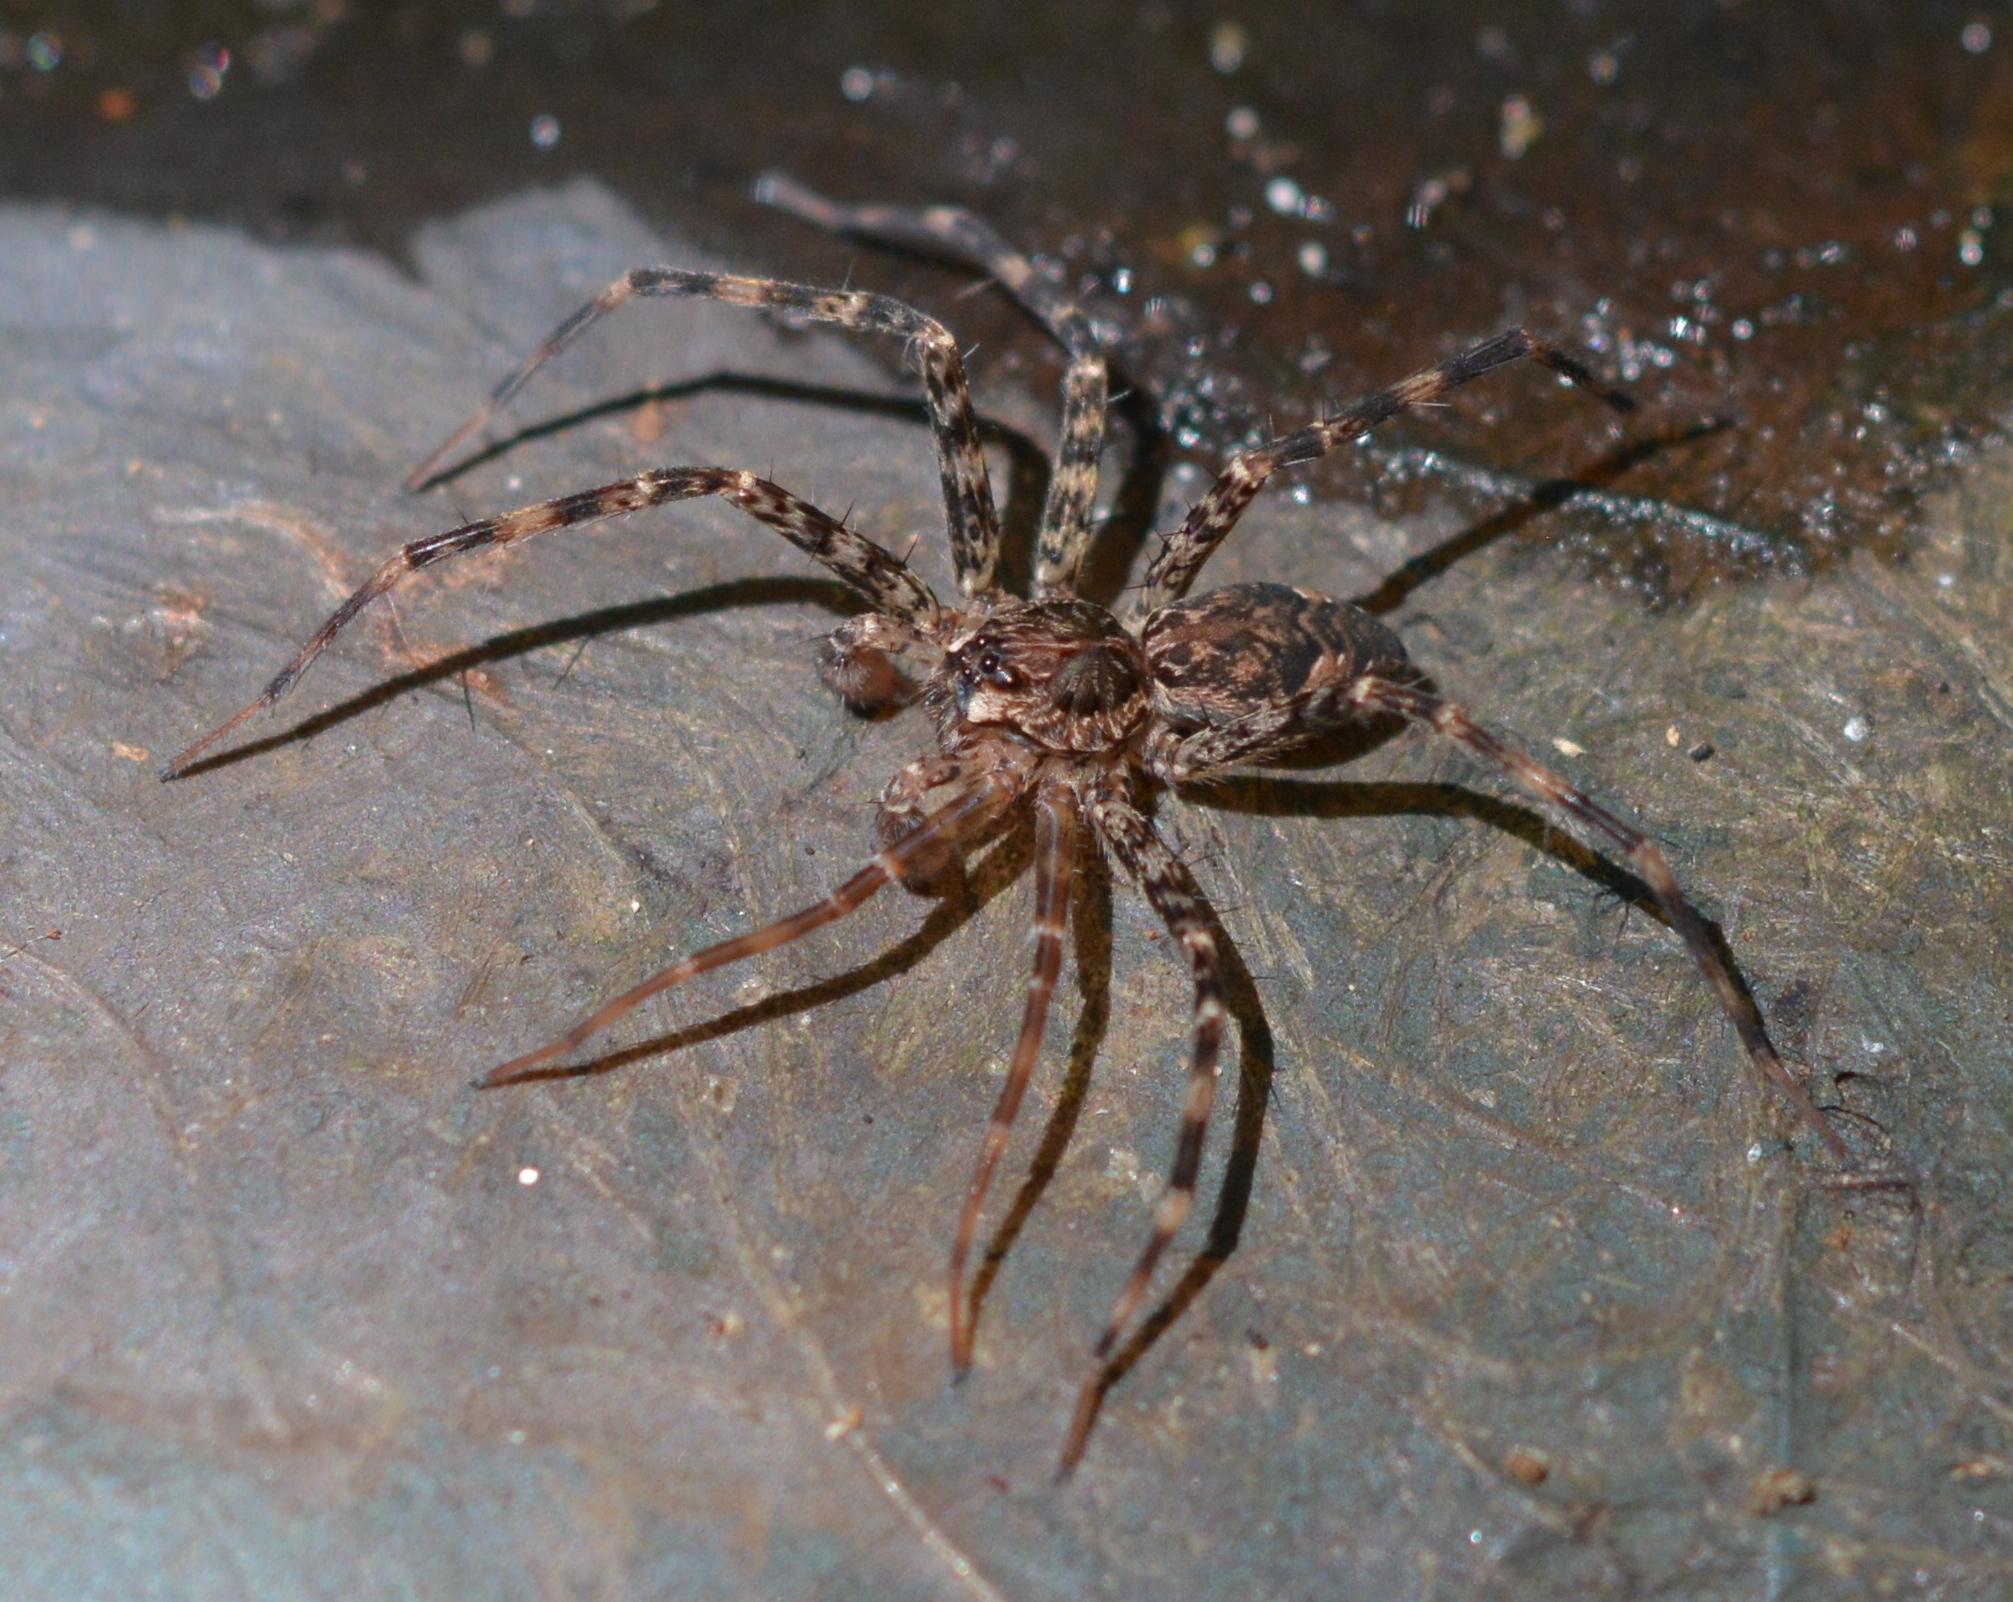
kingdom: Animalia
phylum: Arthropoda
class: Arachnida
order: Araneae
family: Pisauridae
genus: Dolomedes
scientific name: Dolomedes tenebrosus
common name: Dark fishing spider
